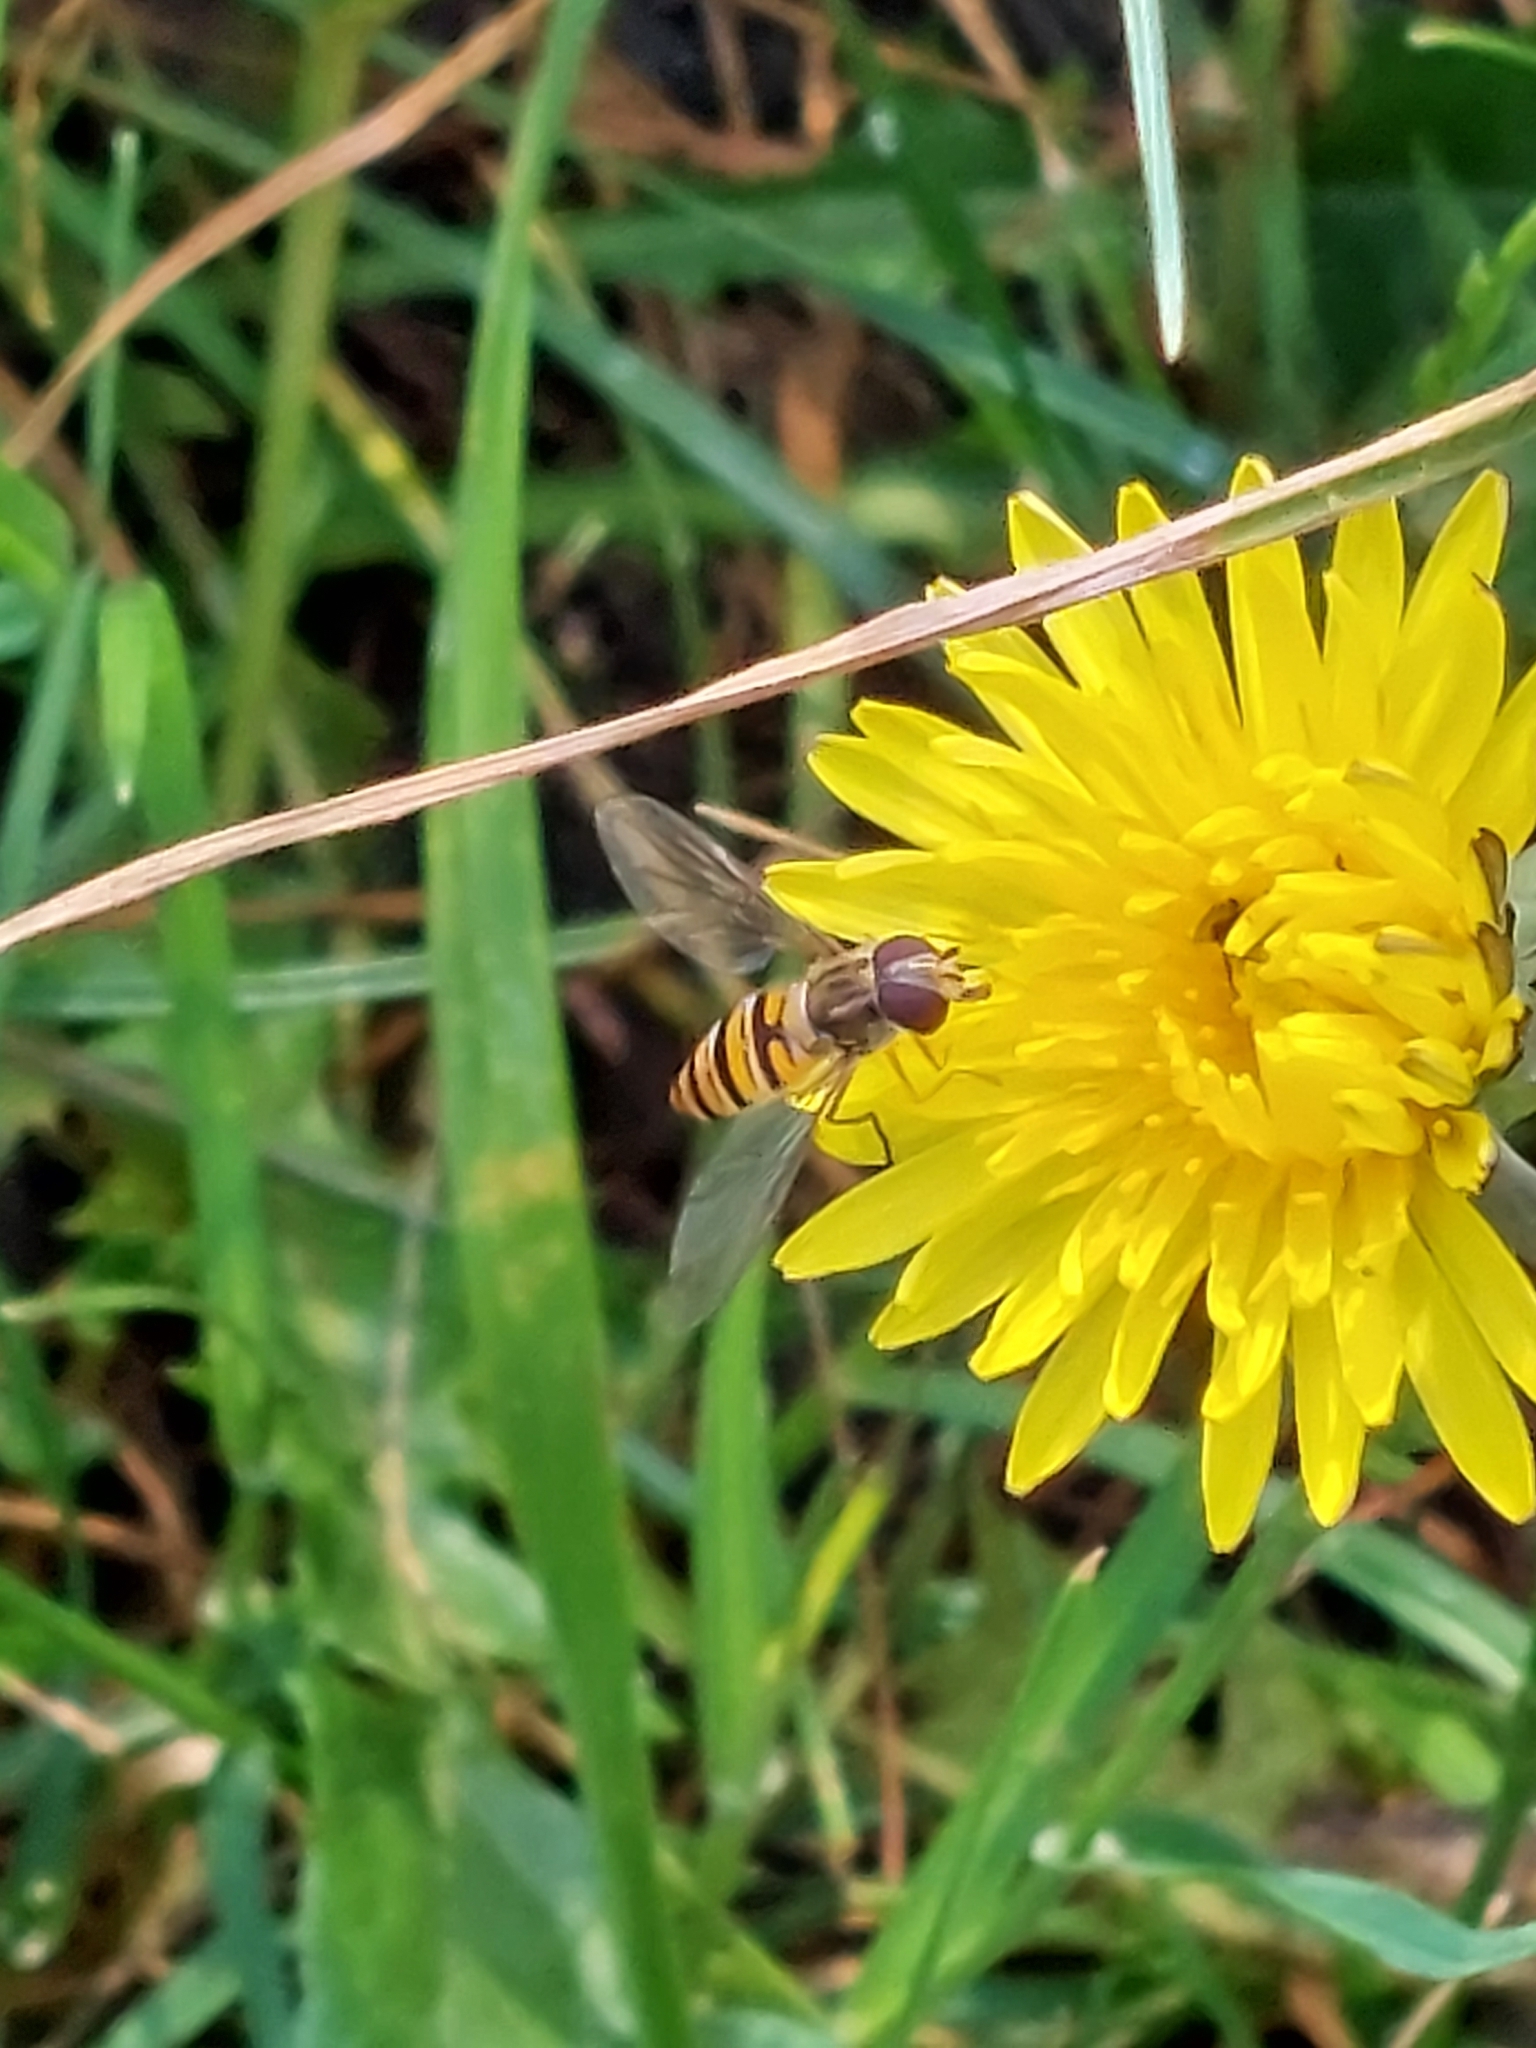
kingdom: Animalia
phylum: Arthropoda
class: Insecta
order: Diptera
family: Syrphidae
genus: Episyrphus
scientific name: Episyrphus balteatus
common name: Marmalade hoverfly
